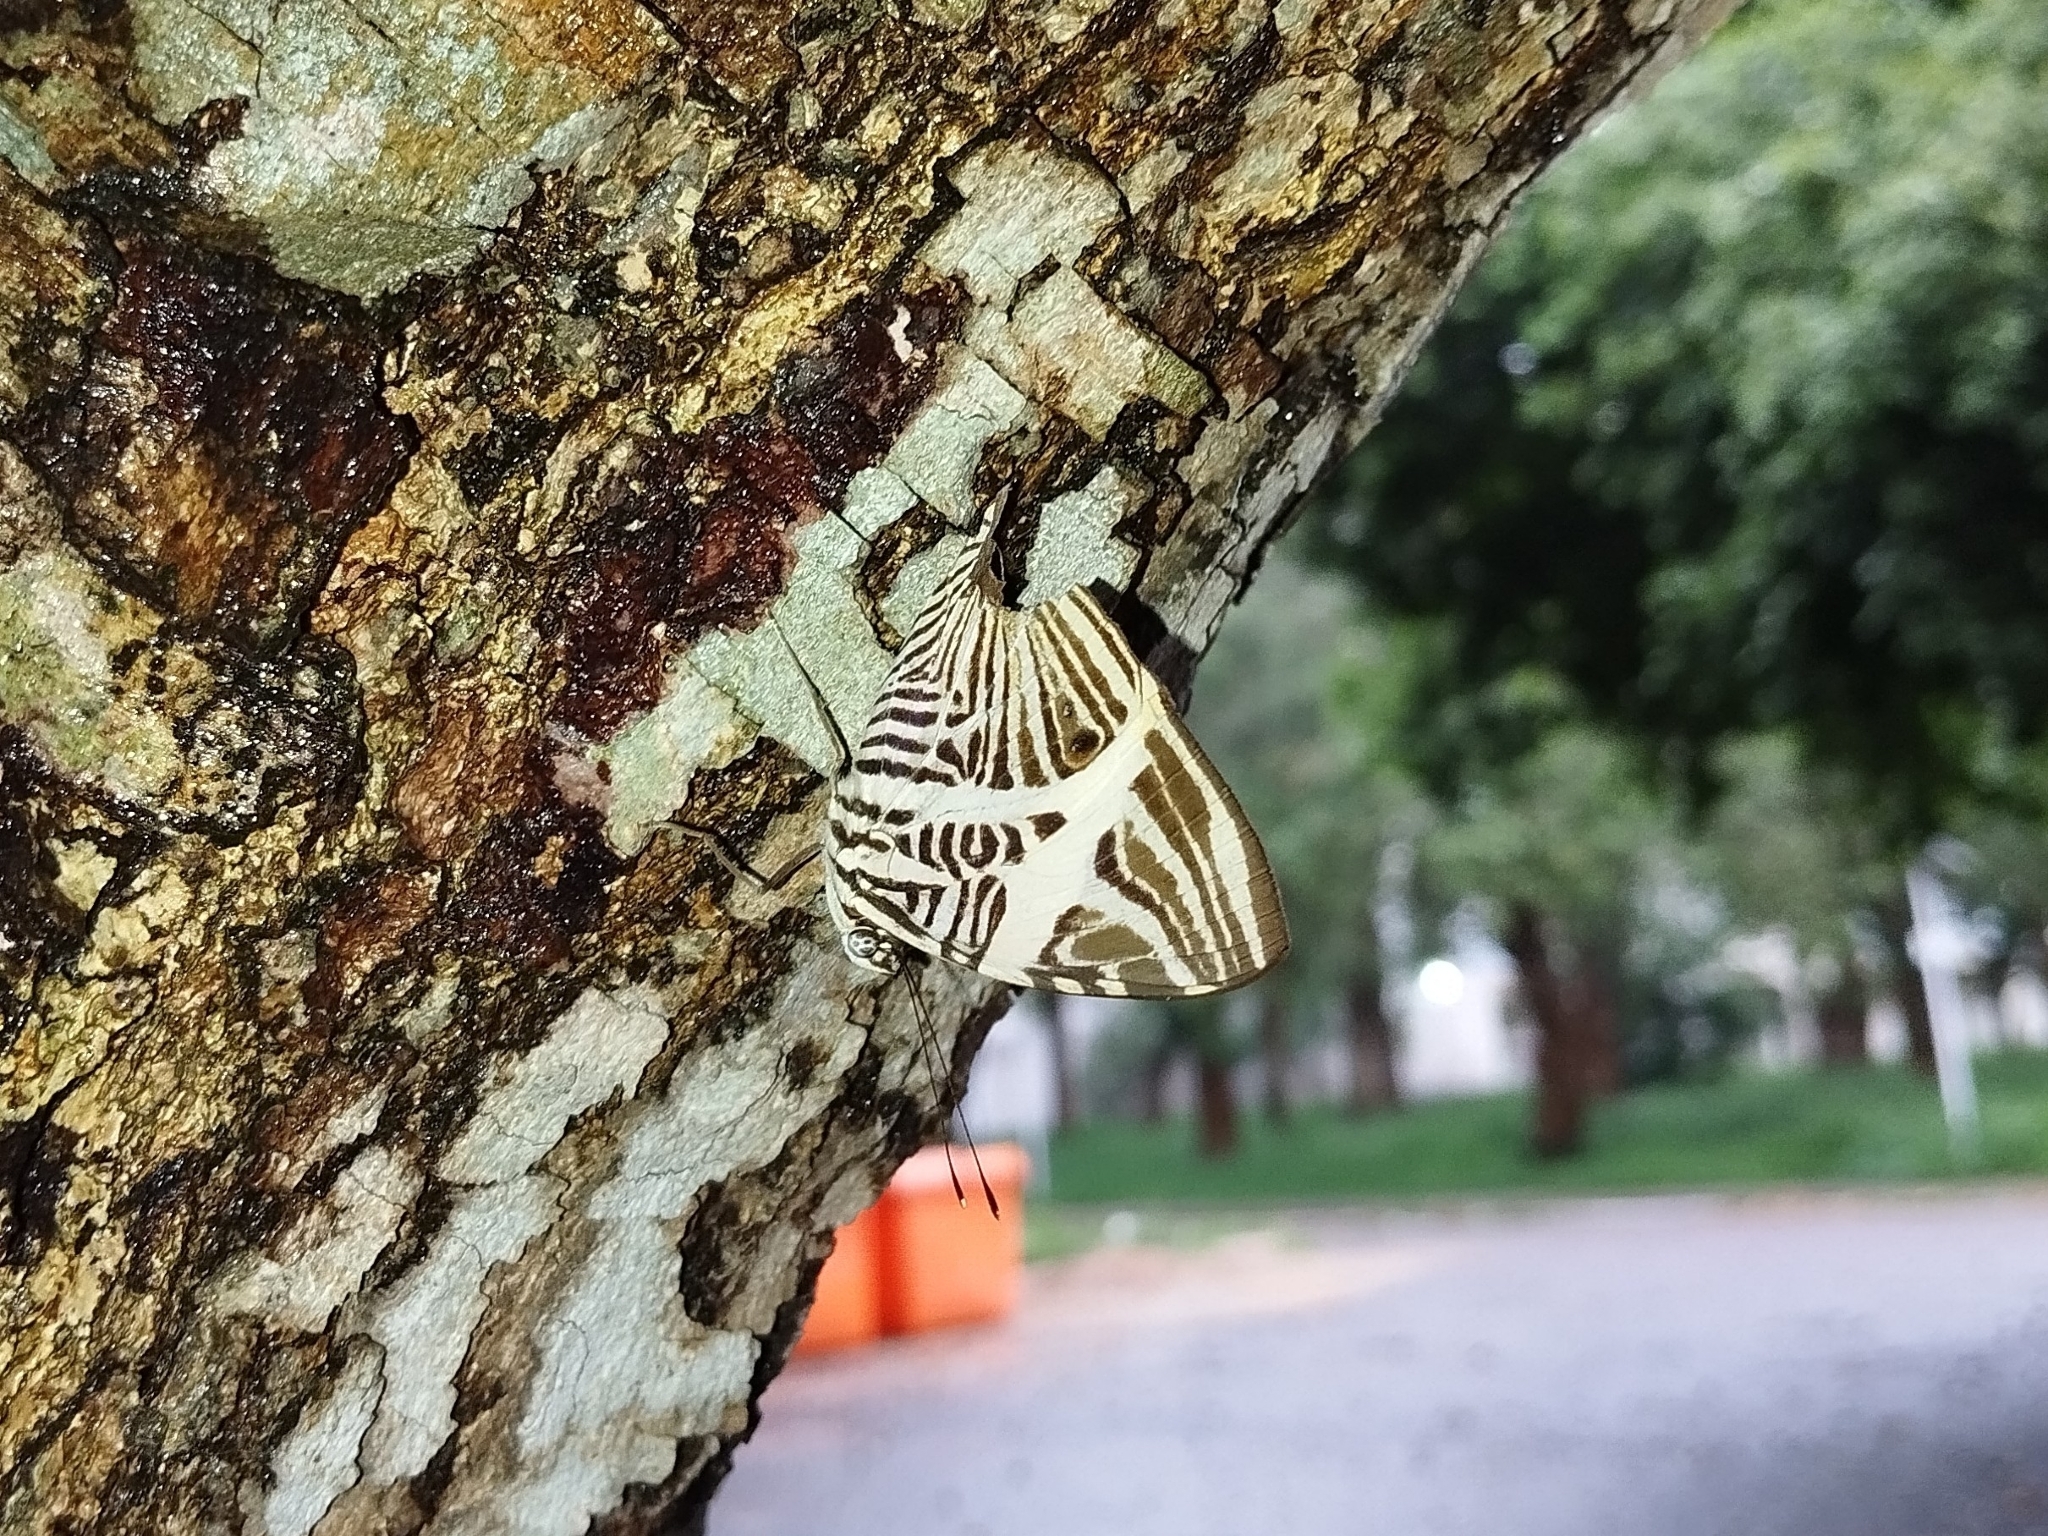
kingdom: Animalia
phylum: Arthropoda
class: Insecta
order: Lepidoptera
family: Nymphalidae
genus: Colobura
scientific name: Colobura dirce
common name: Dirce beauty
